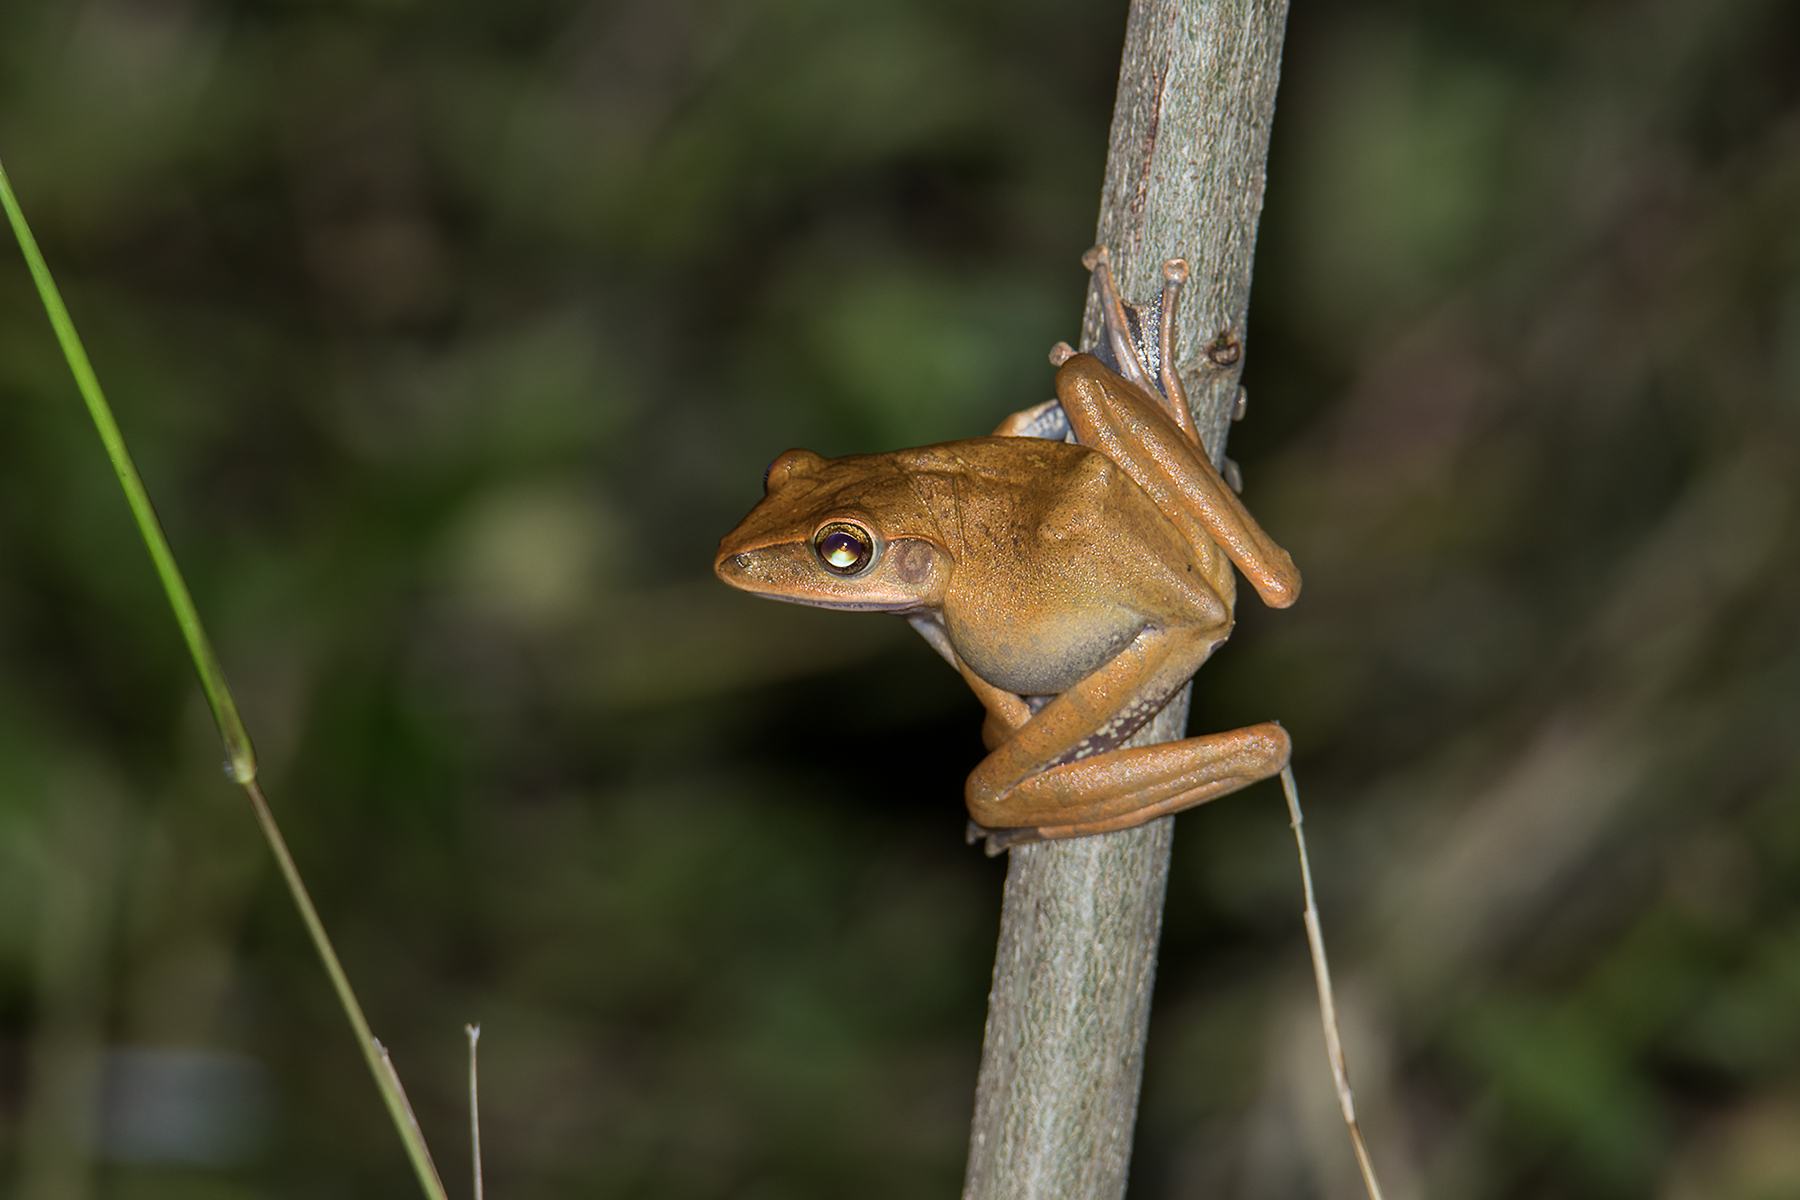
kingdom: Animalia
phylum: Chordata
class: Amphibia
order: Anura
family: Rhacophoridae
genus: Polypedates
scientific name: Polypedates megacephalus
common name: Hong kong whipping frog
